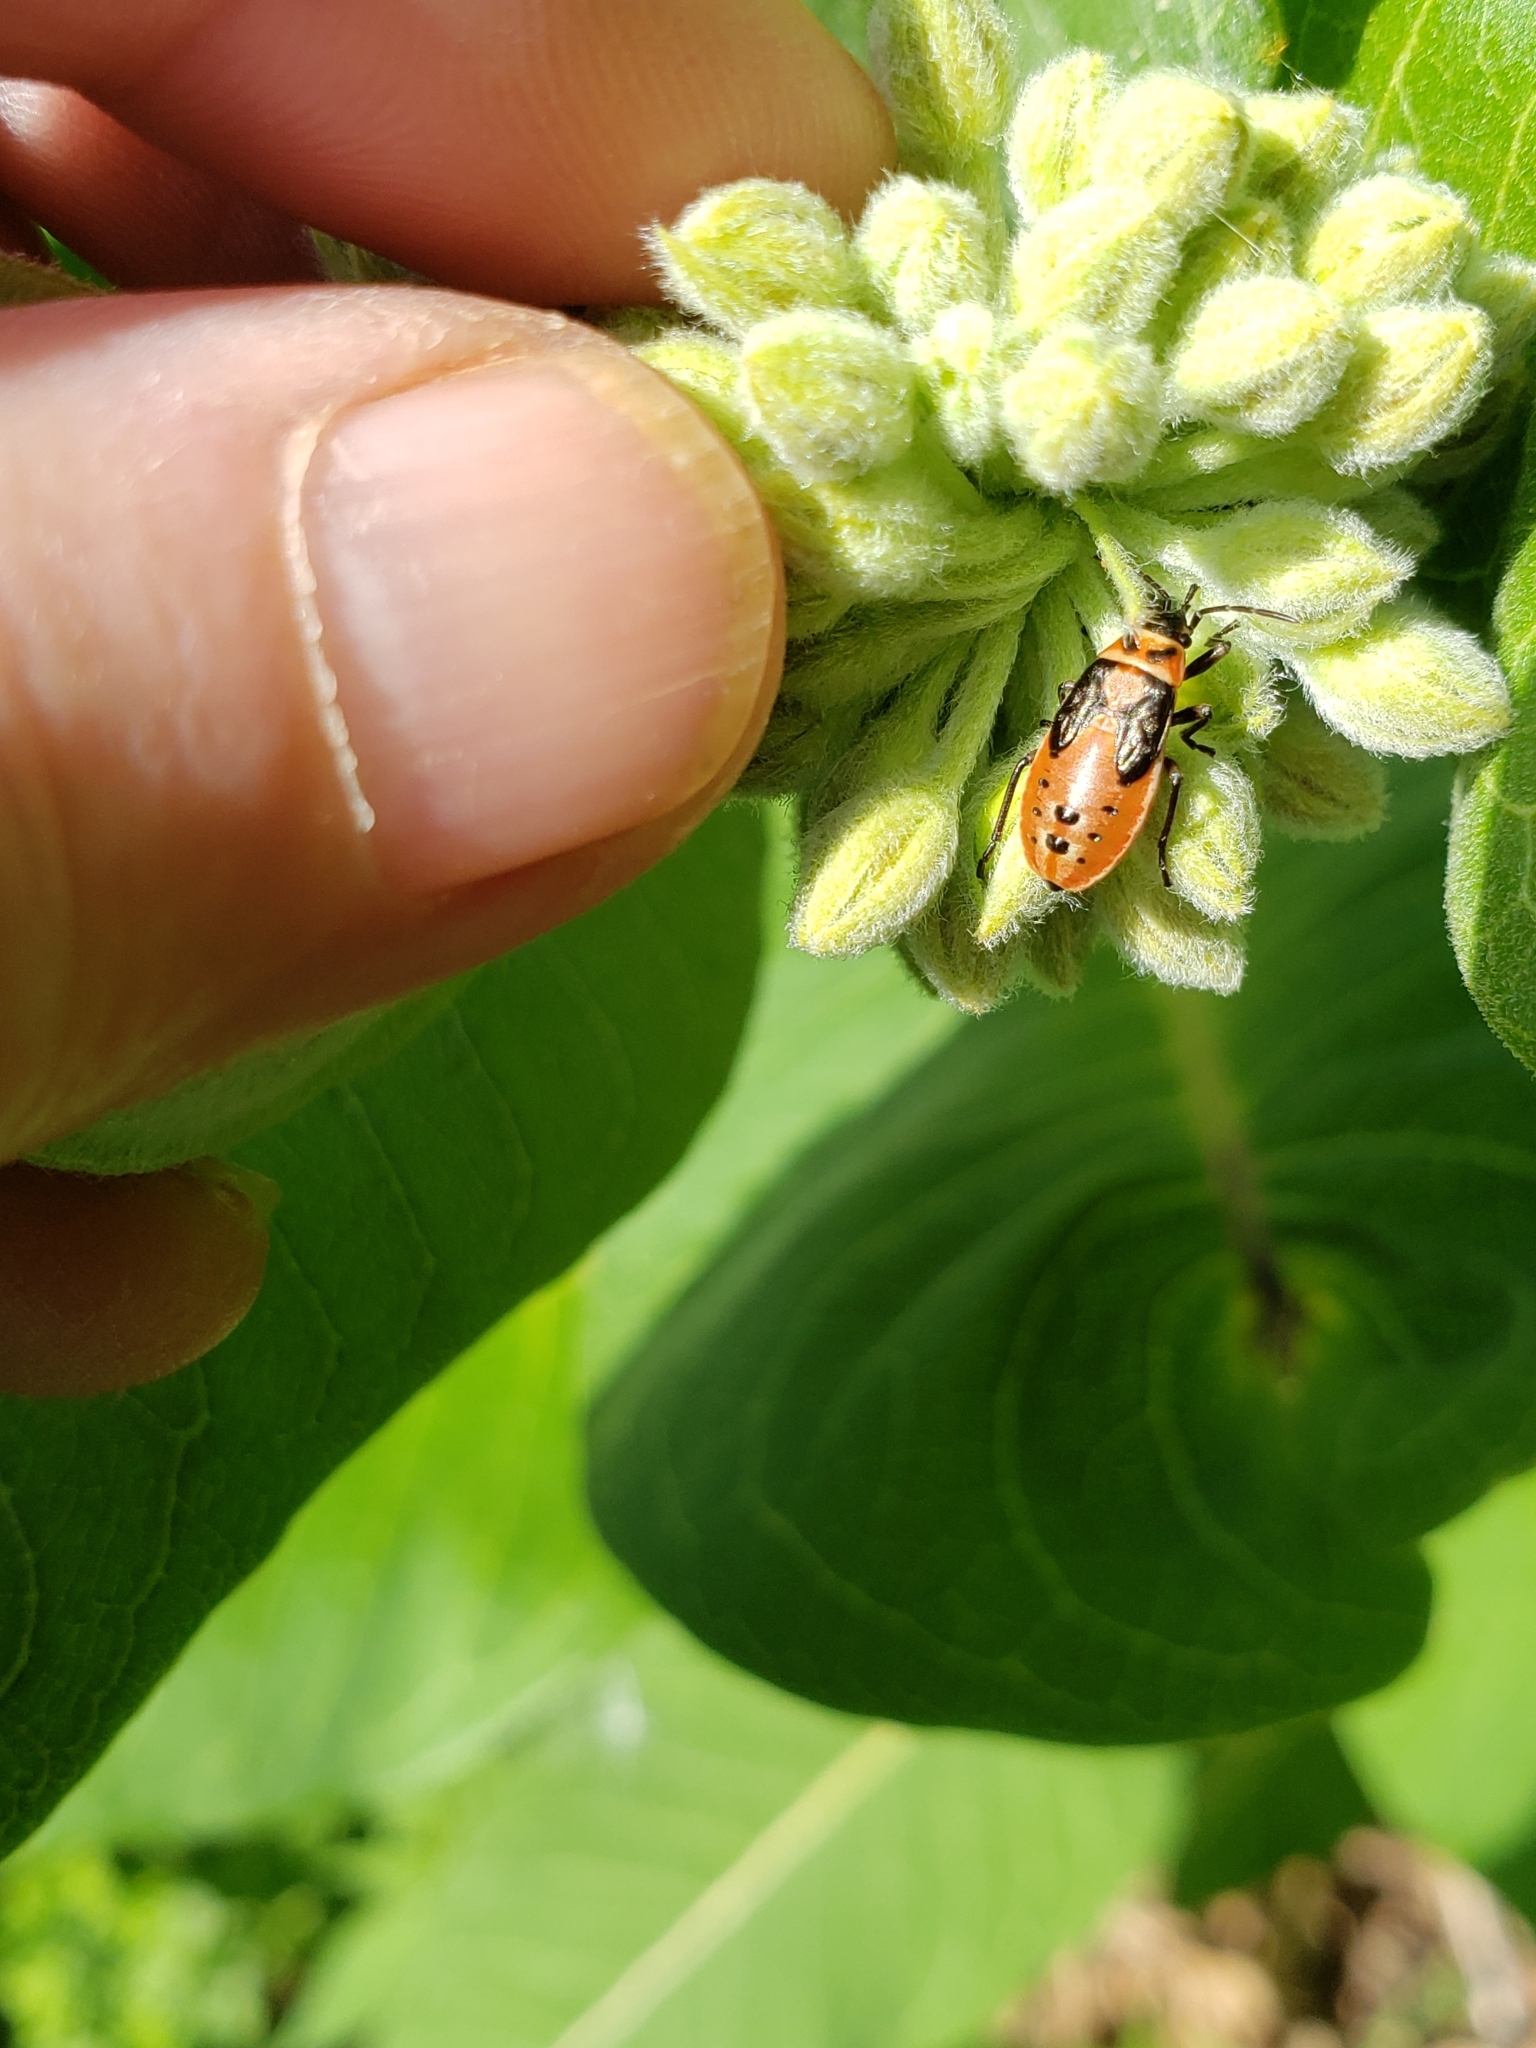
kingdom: Animalia
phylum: Arthropoda
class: Insecta
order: Hemiptera
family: Lygaeidae
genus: Lygaeus
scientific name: Lygaeus kalmii
